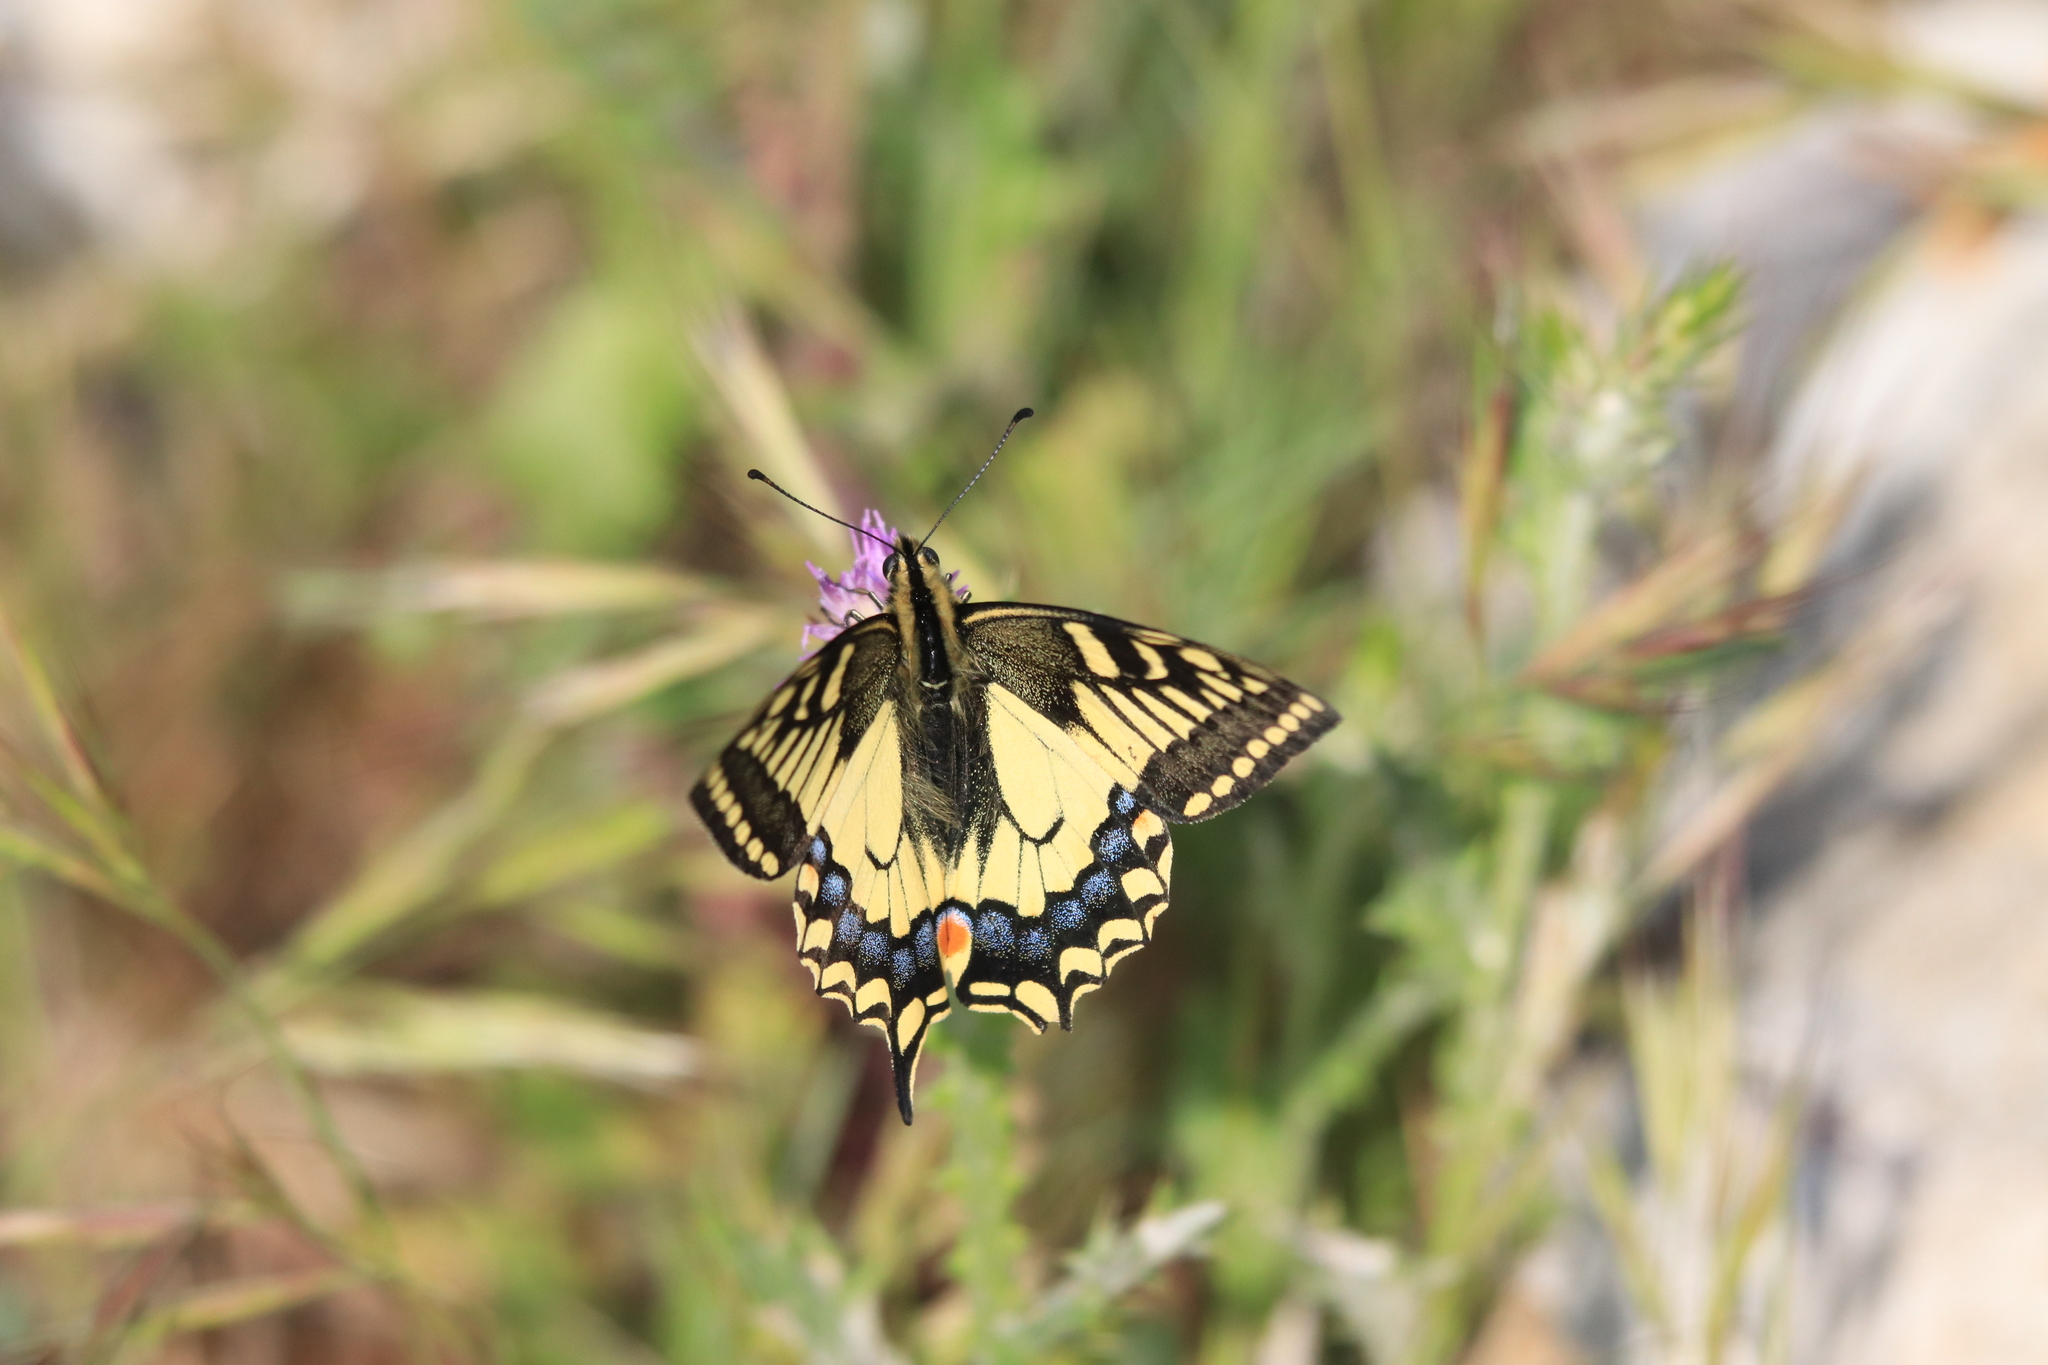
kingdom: Animalia
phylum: Arthropoda
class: Insecta
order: Lepidoptera
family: Papilionidae
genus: Papilio
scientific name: Papilio machaon
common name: Swallowtail
